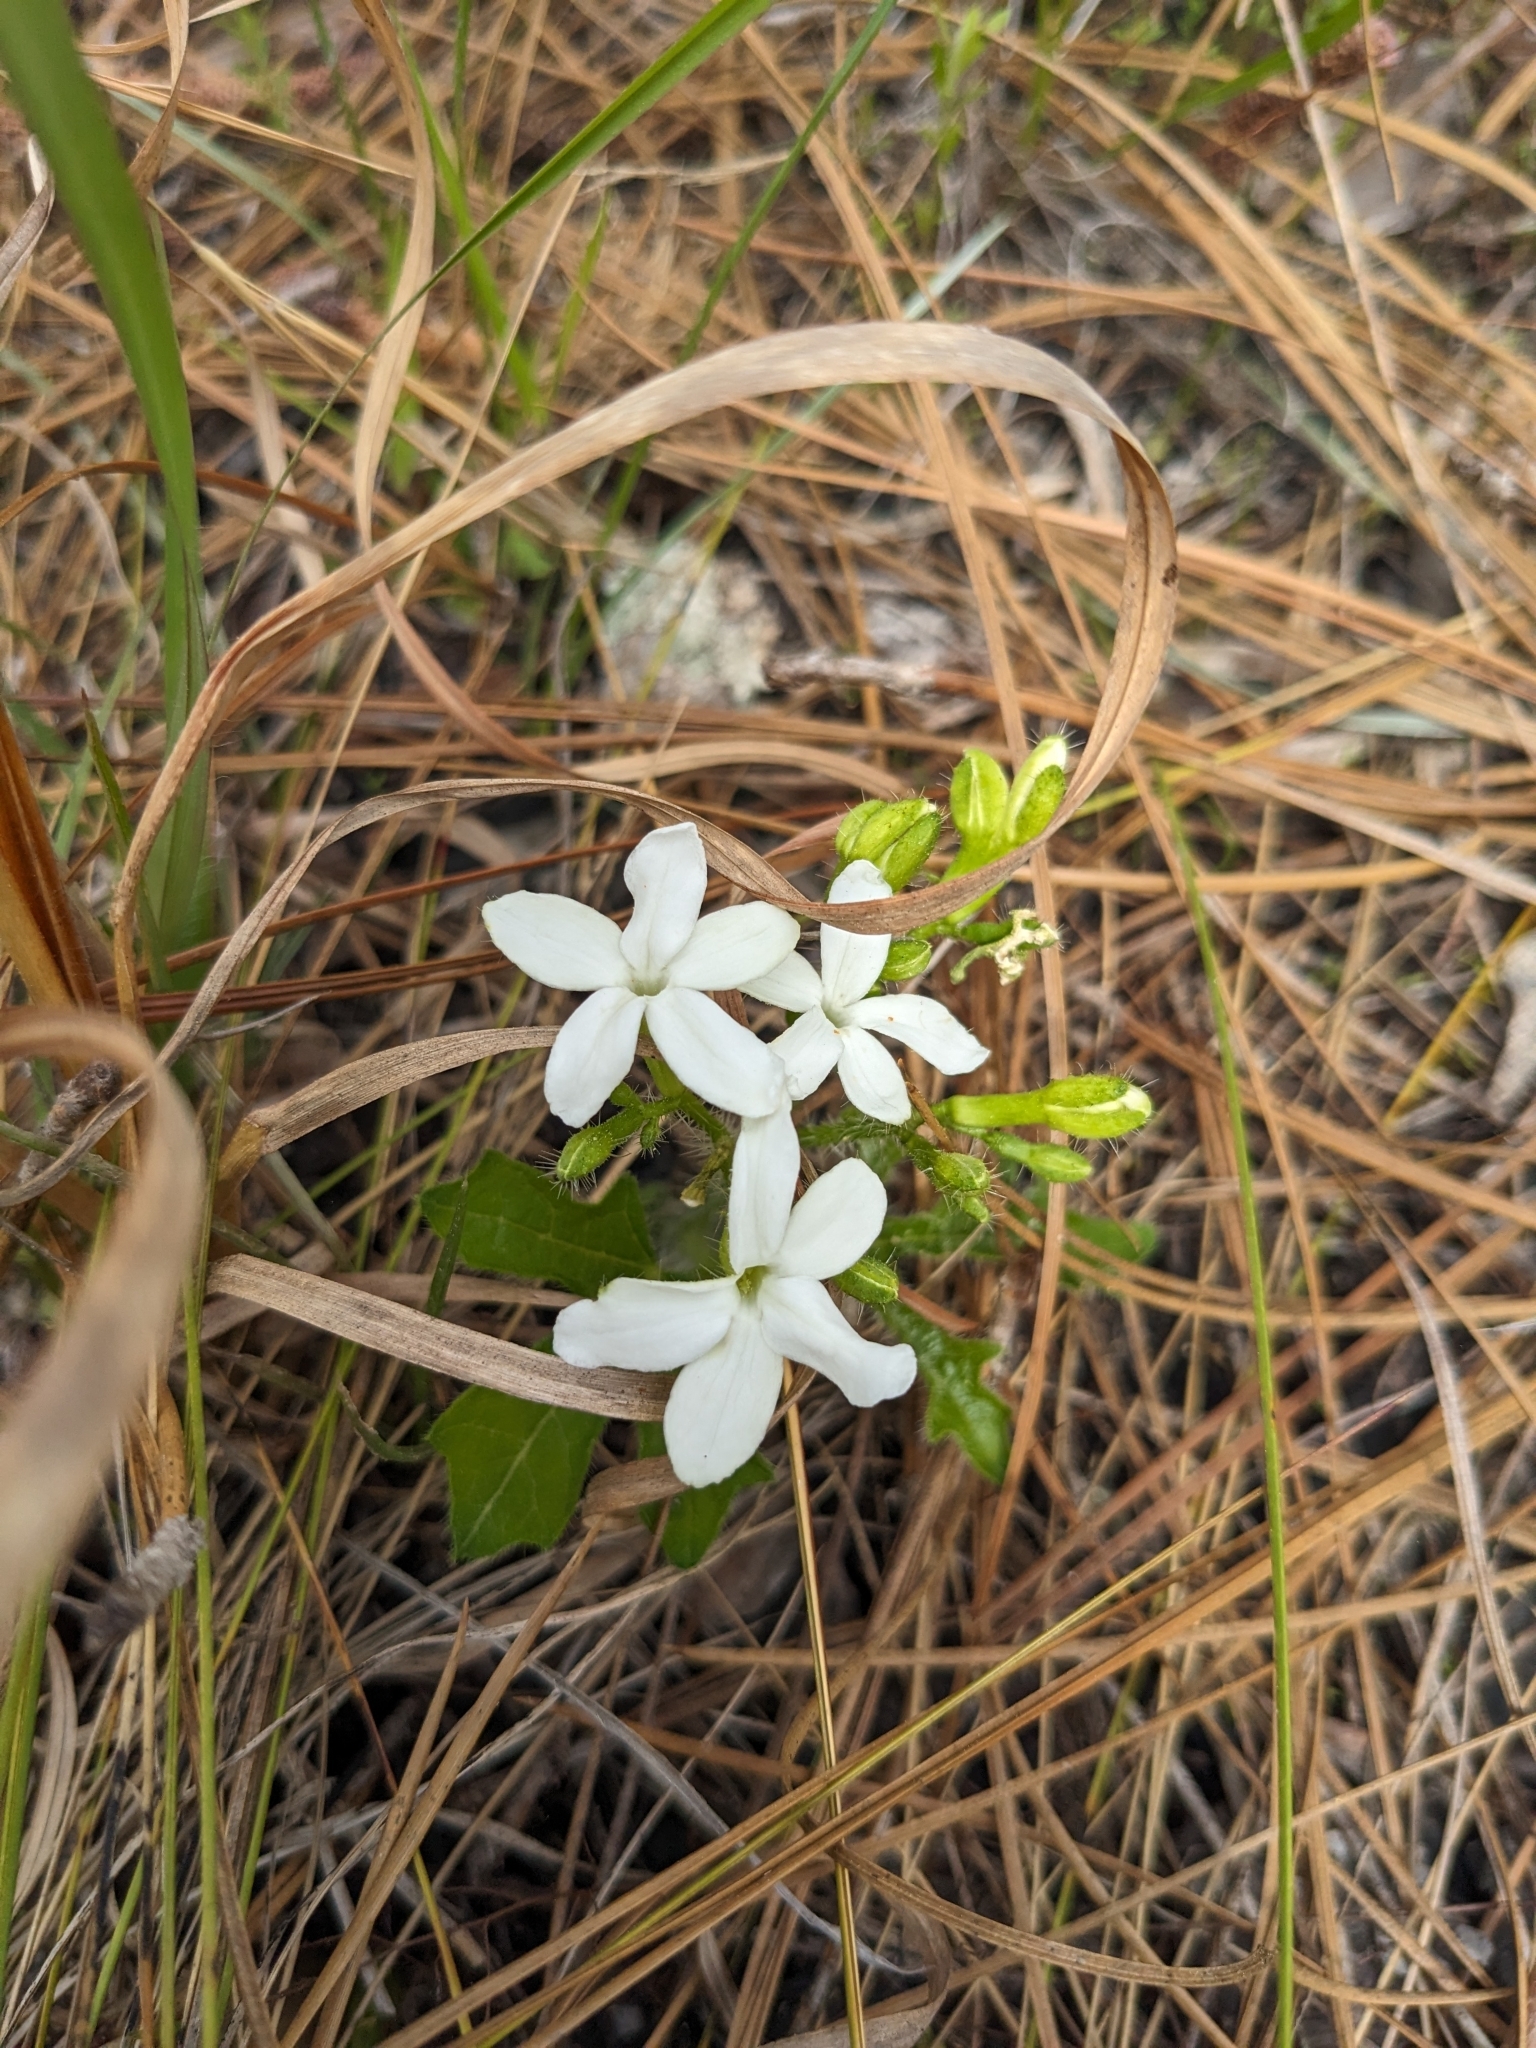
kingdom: Plantae
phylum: Tracheophyta
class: Magnoliopsida
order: Malpighiales
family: Euphorbiaceae
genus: Cnidoscolus
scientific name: Cnidoscolus stimulosus
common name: Bull-nettle
